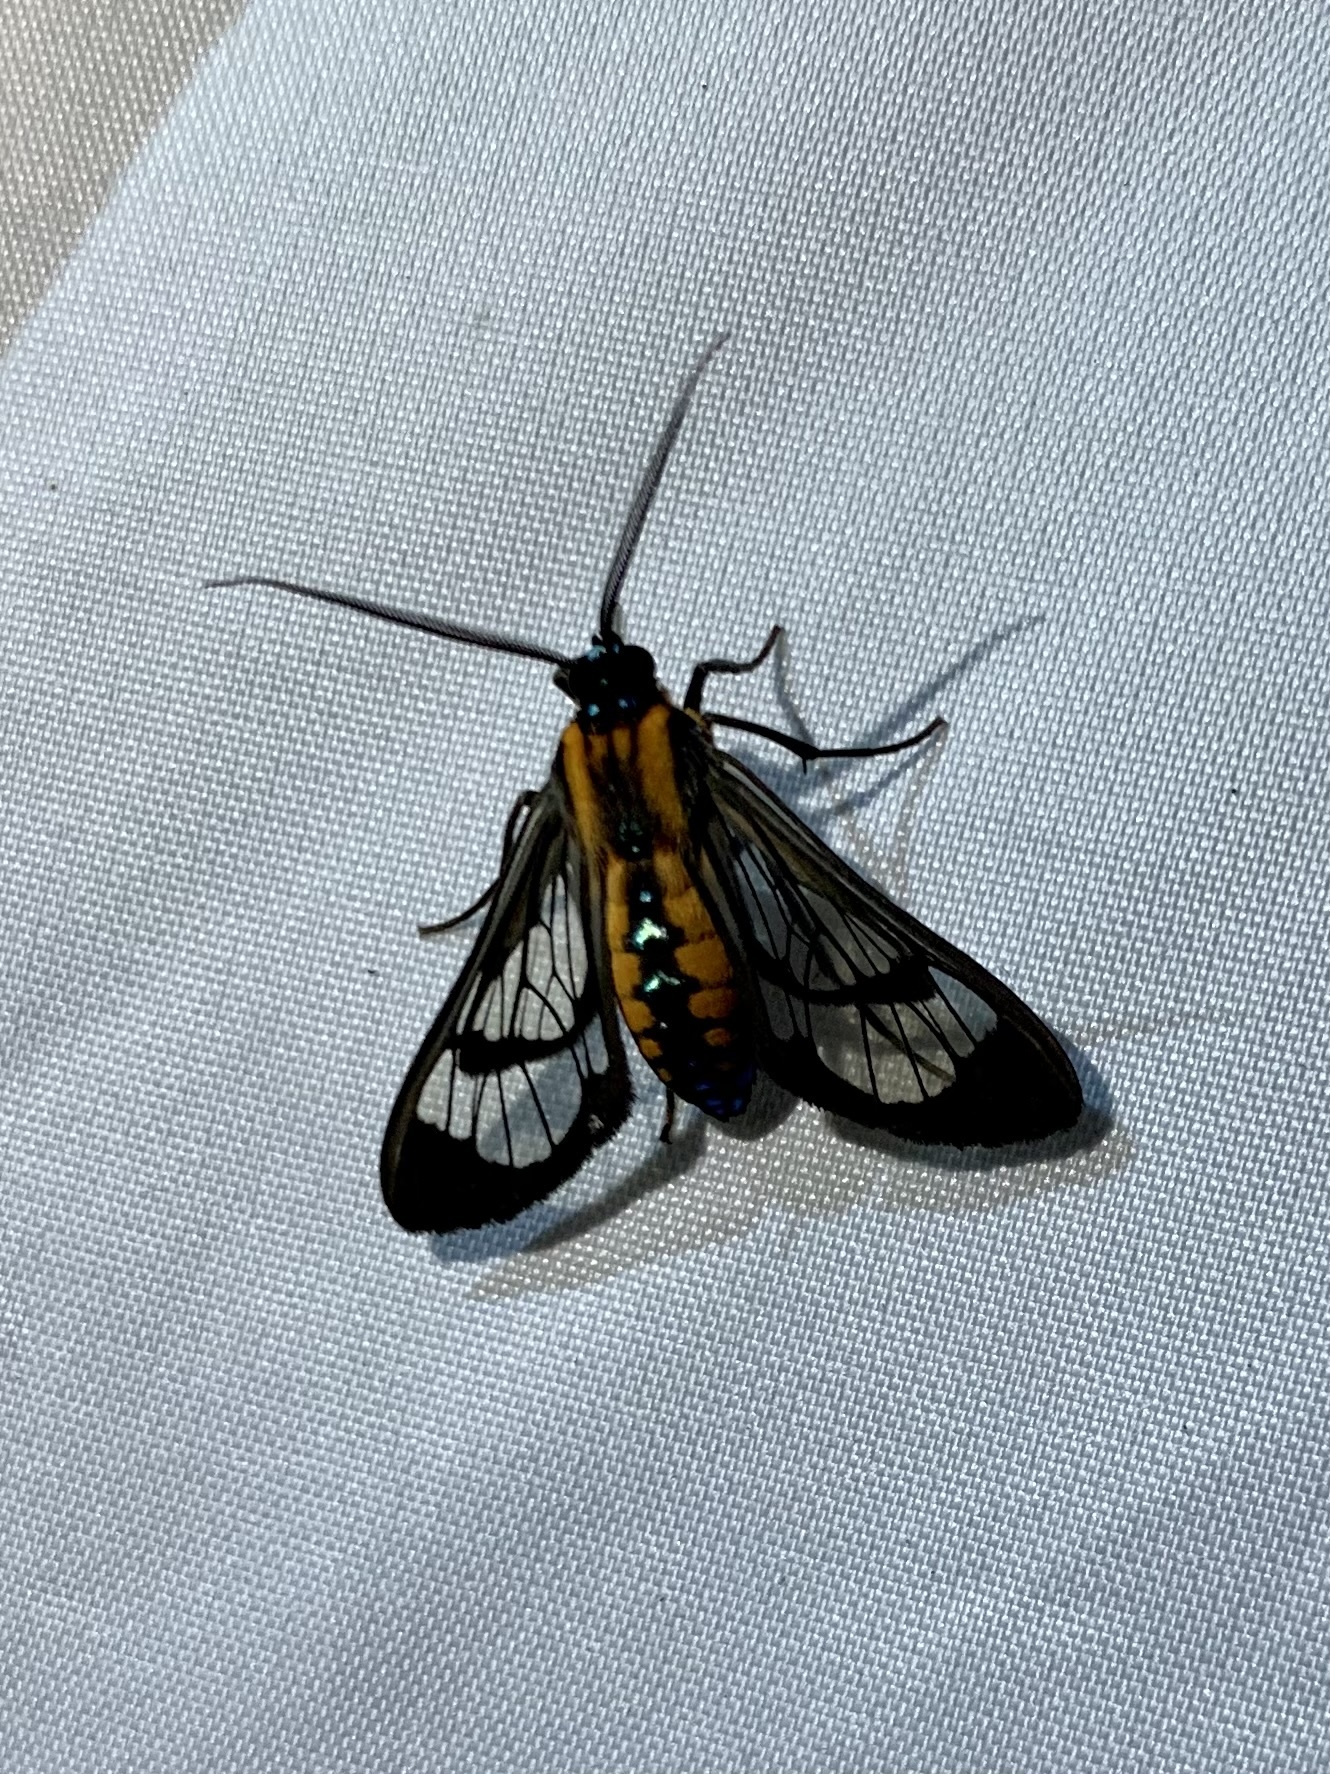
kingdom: Animalia
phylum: Arthropoda
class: Insecta
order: Lepidoptera
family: Erebidae
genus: Cosmosoma
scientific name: Cosmosoma garleppi
